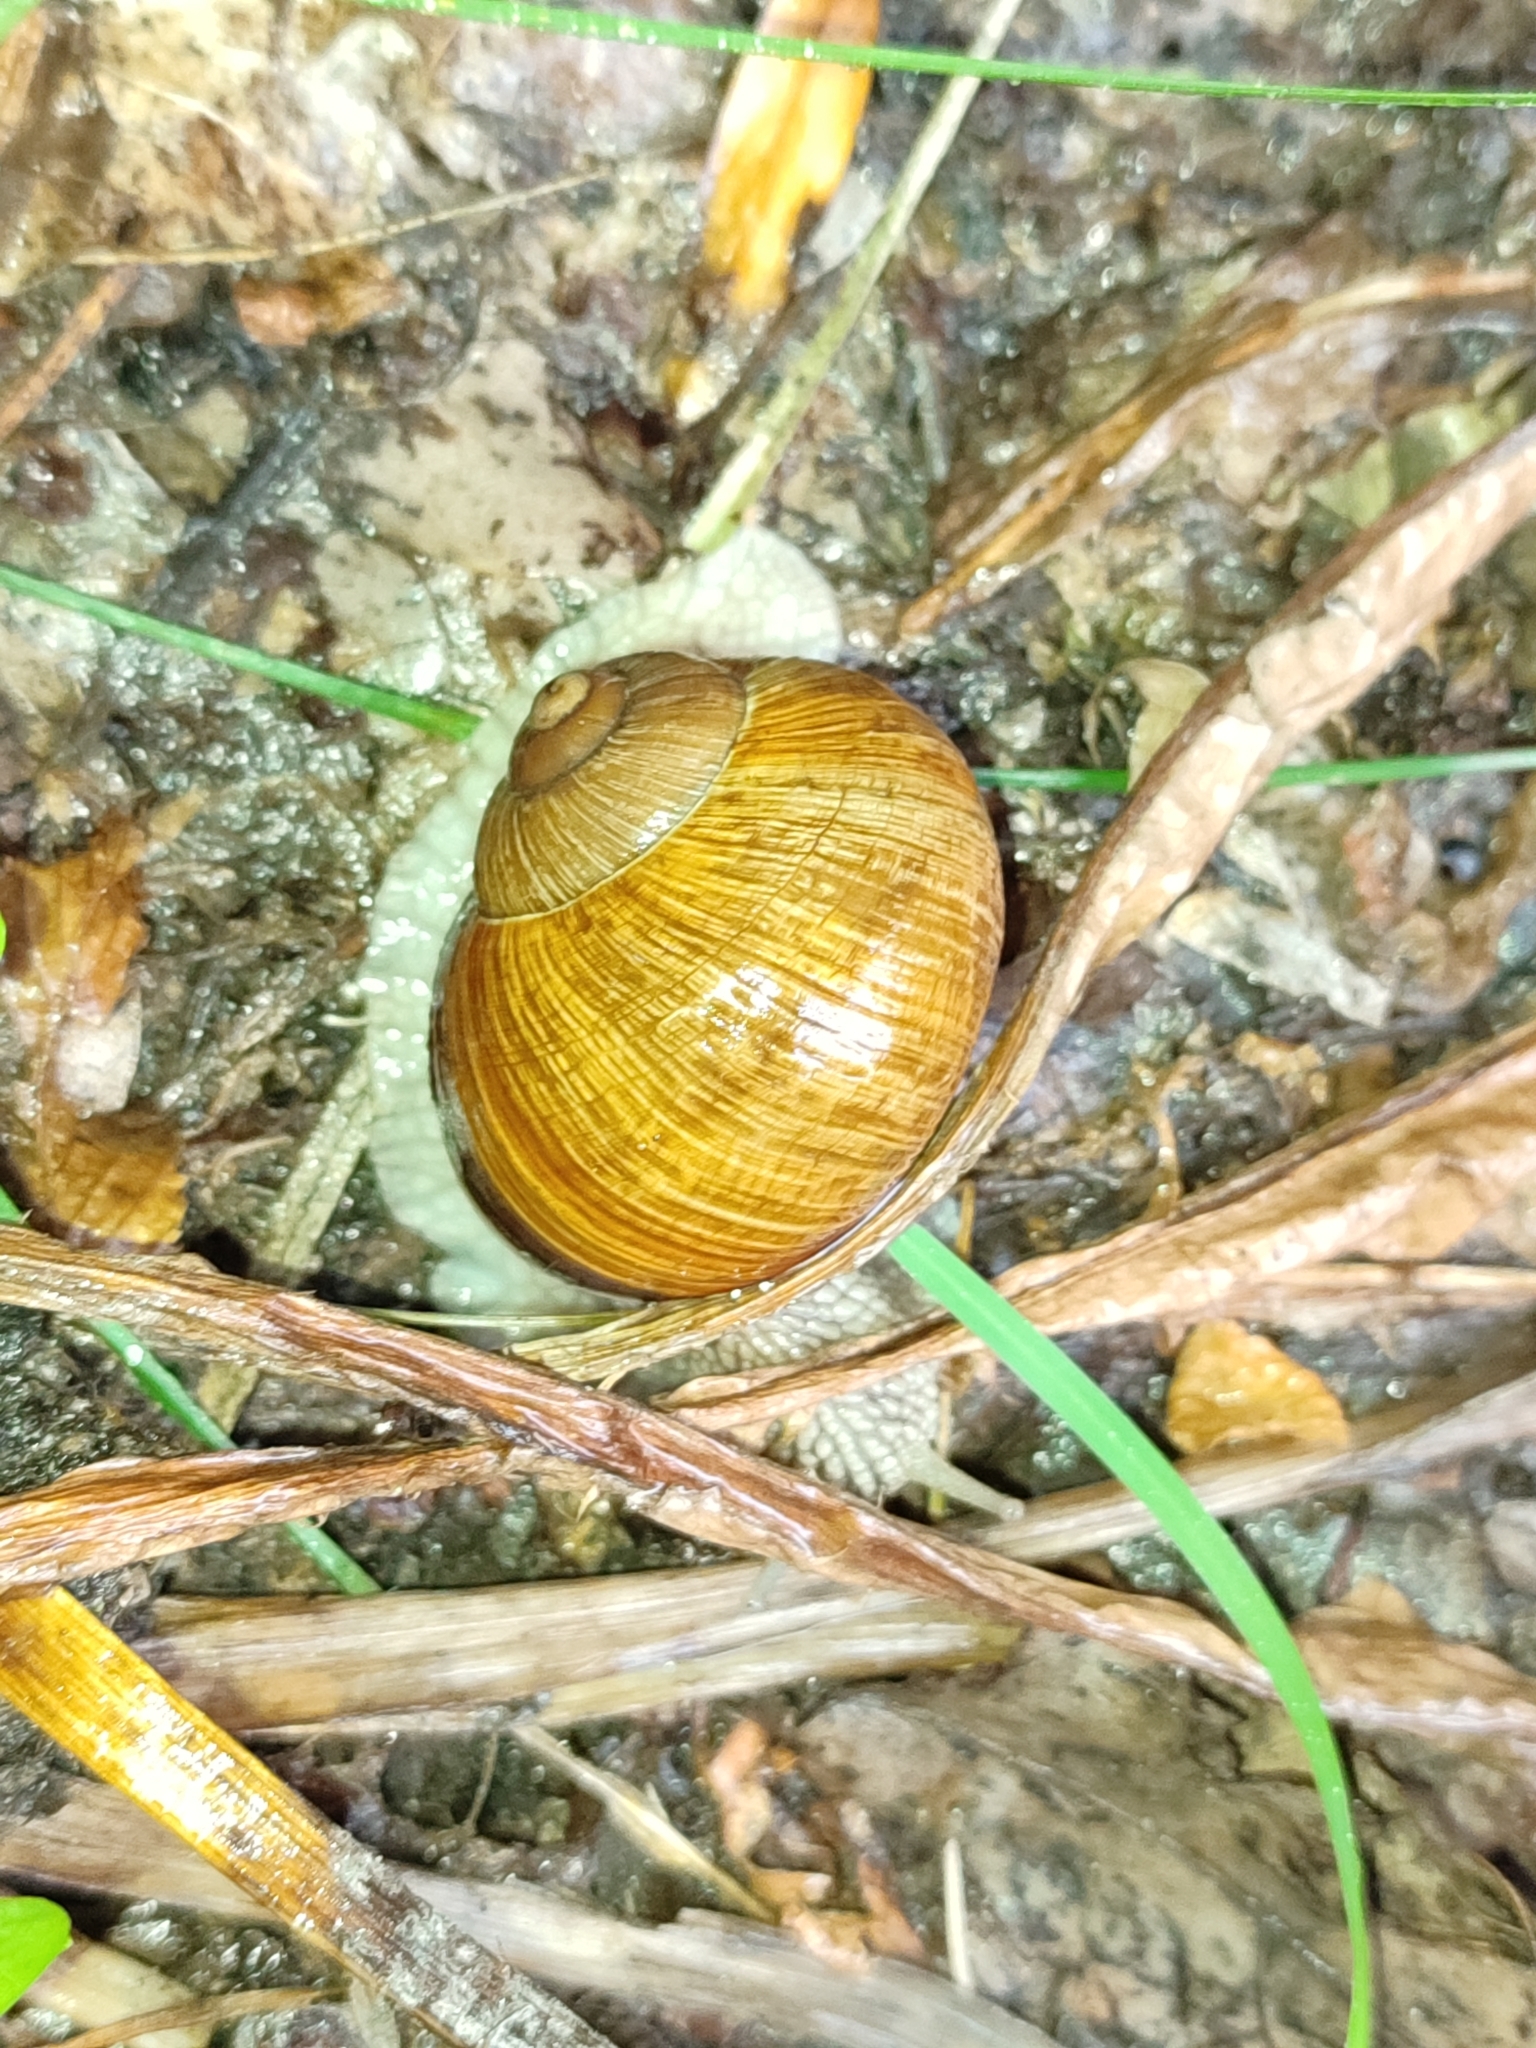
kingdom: Animalia
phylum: Mollusca
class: Gastropoda
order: Stylommatophora
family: Helicidae
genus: Helix
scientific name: Helix pomatia
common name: Roman snail
